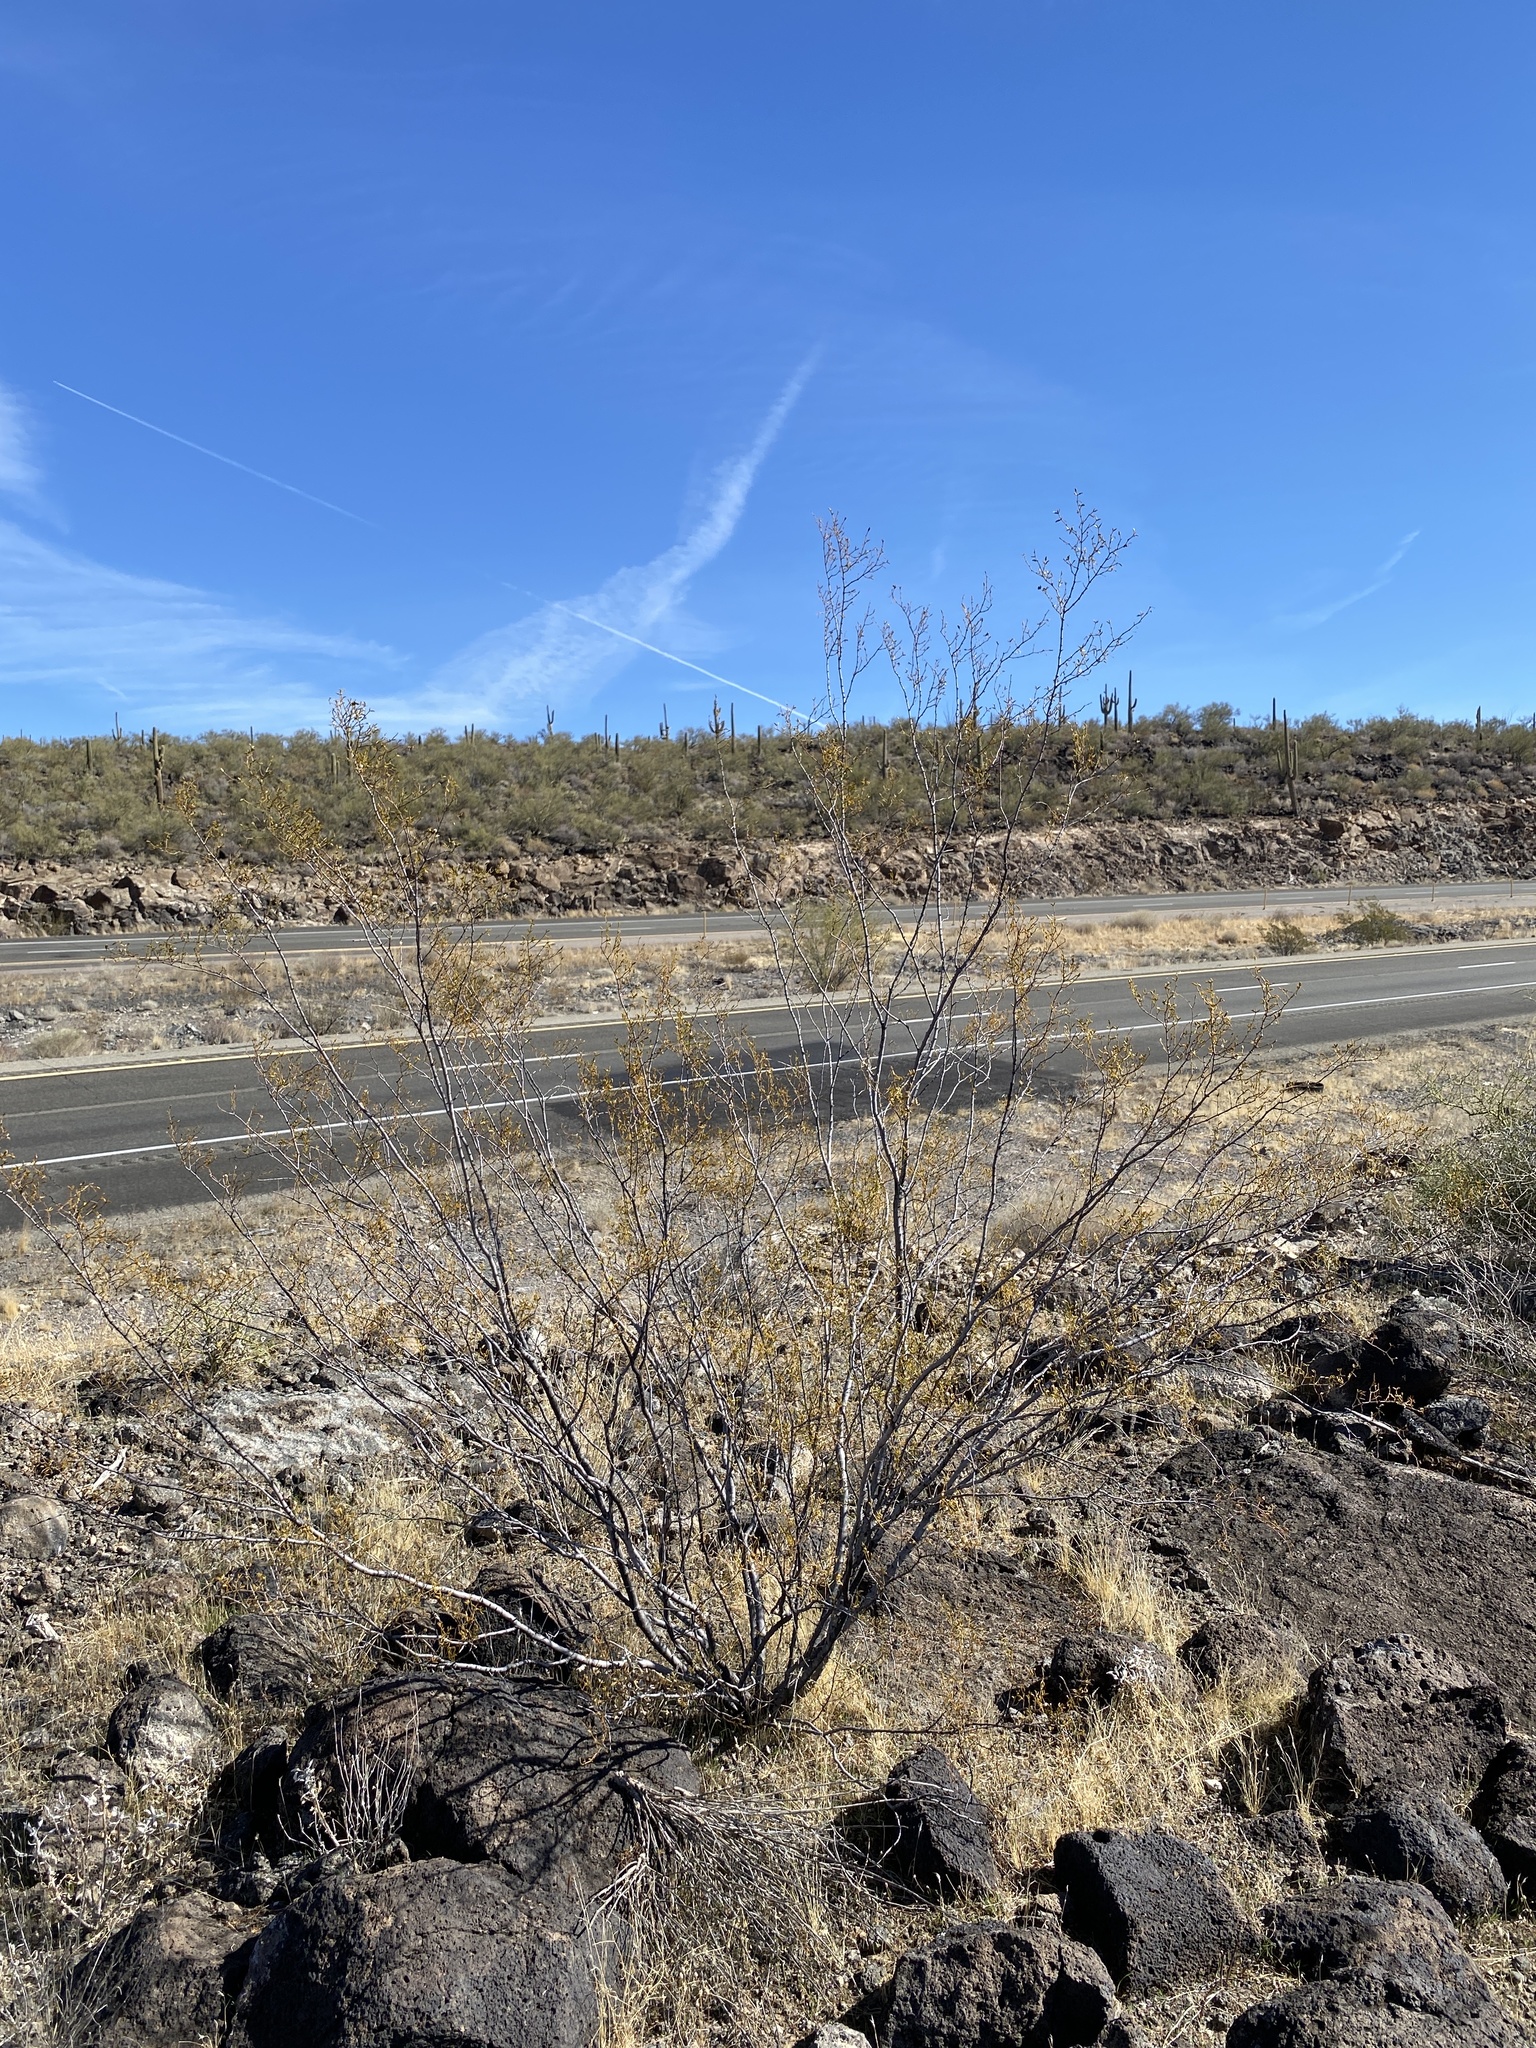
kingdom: Plantae
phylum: Tracheophyta
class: Magnoliopsida
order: Zygophyllales
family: Zygophyllaceae
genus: Larrea
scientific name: Larrea tridentata
